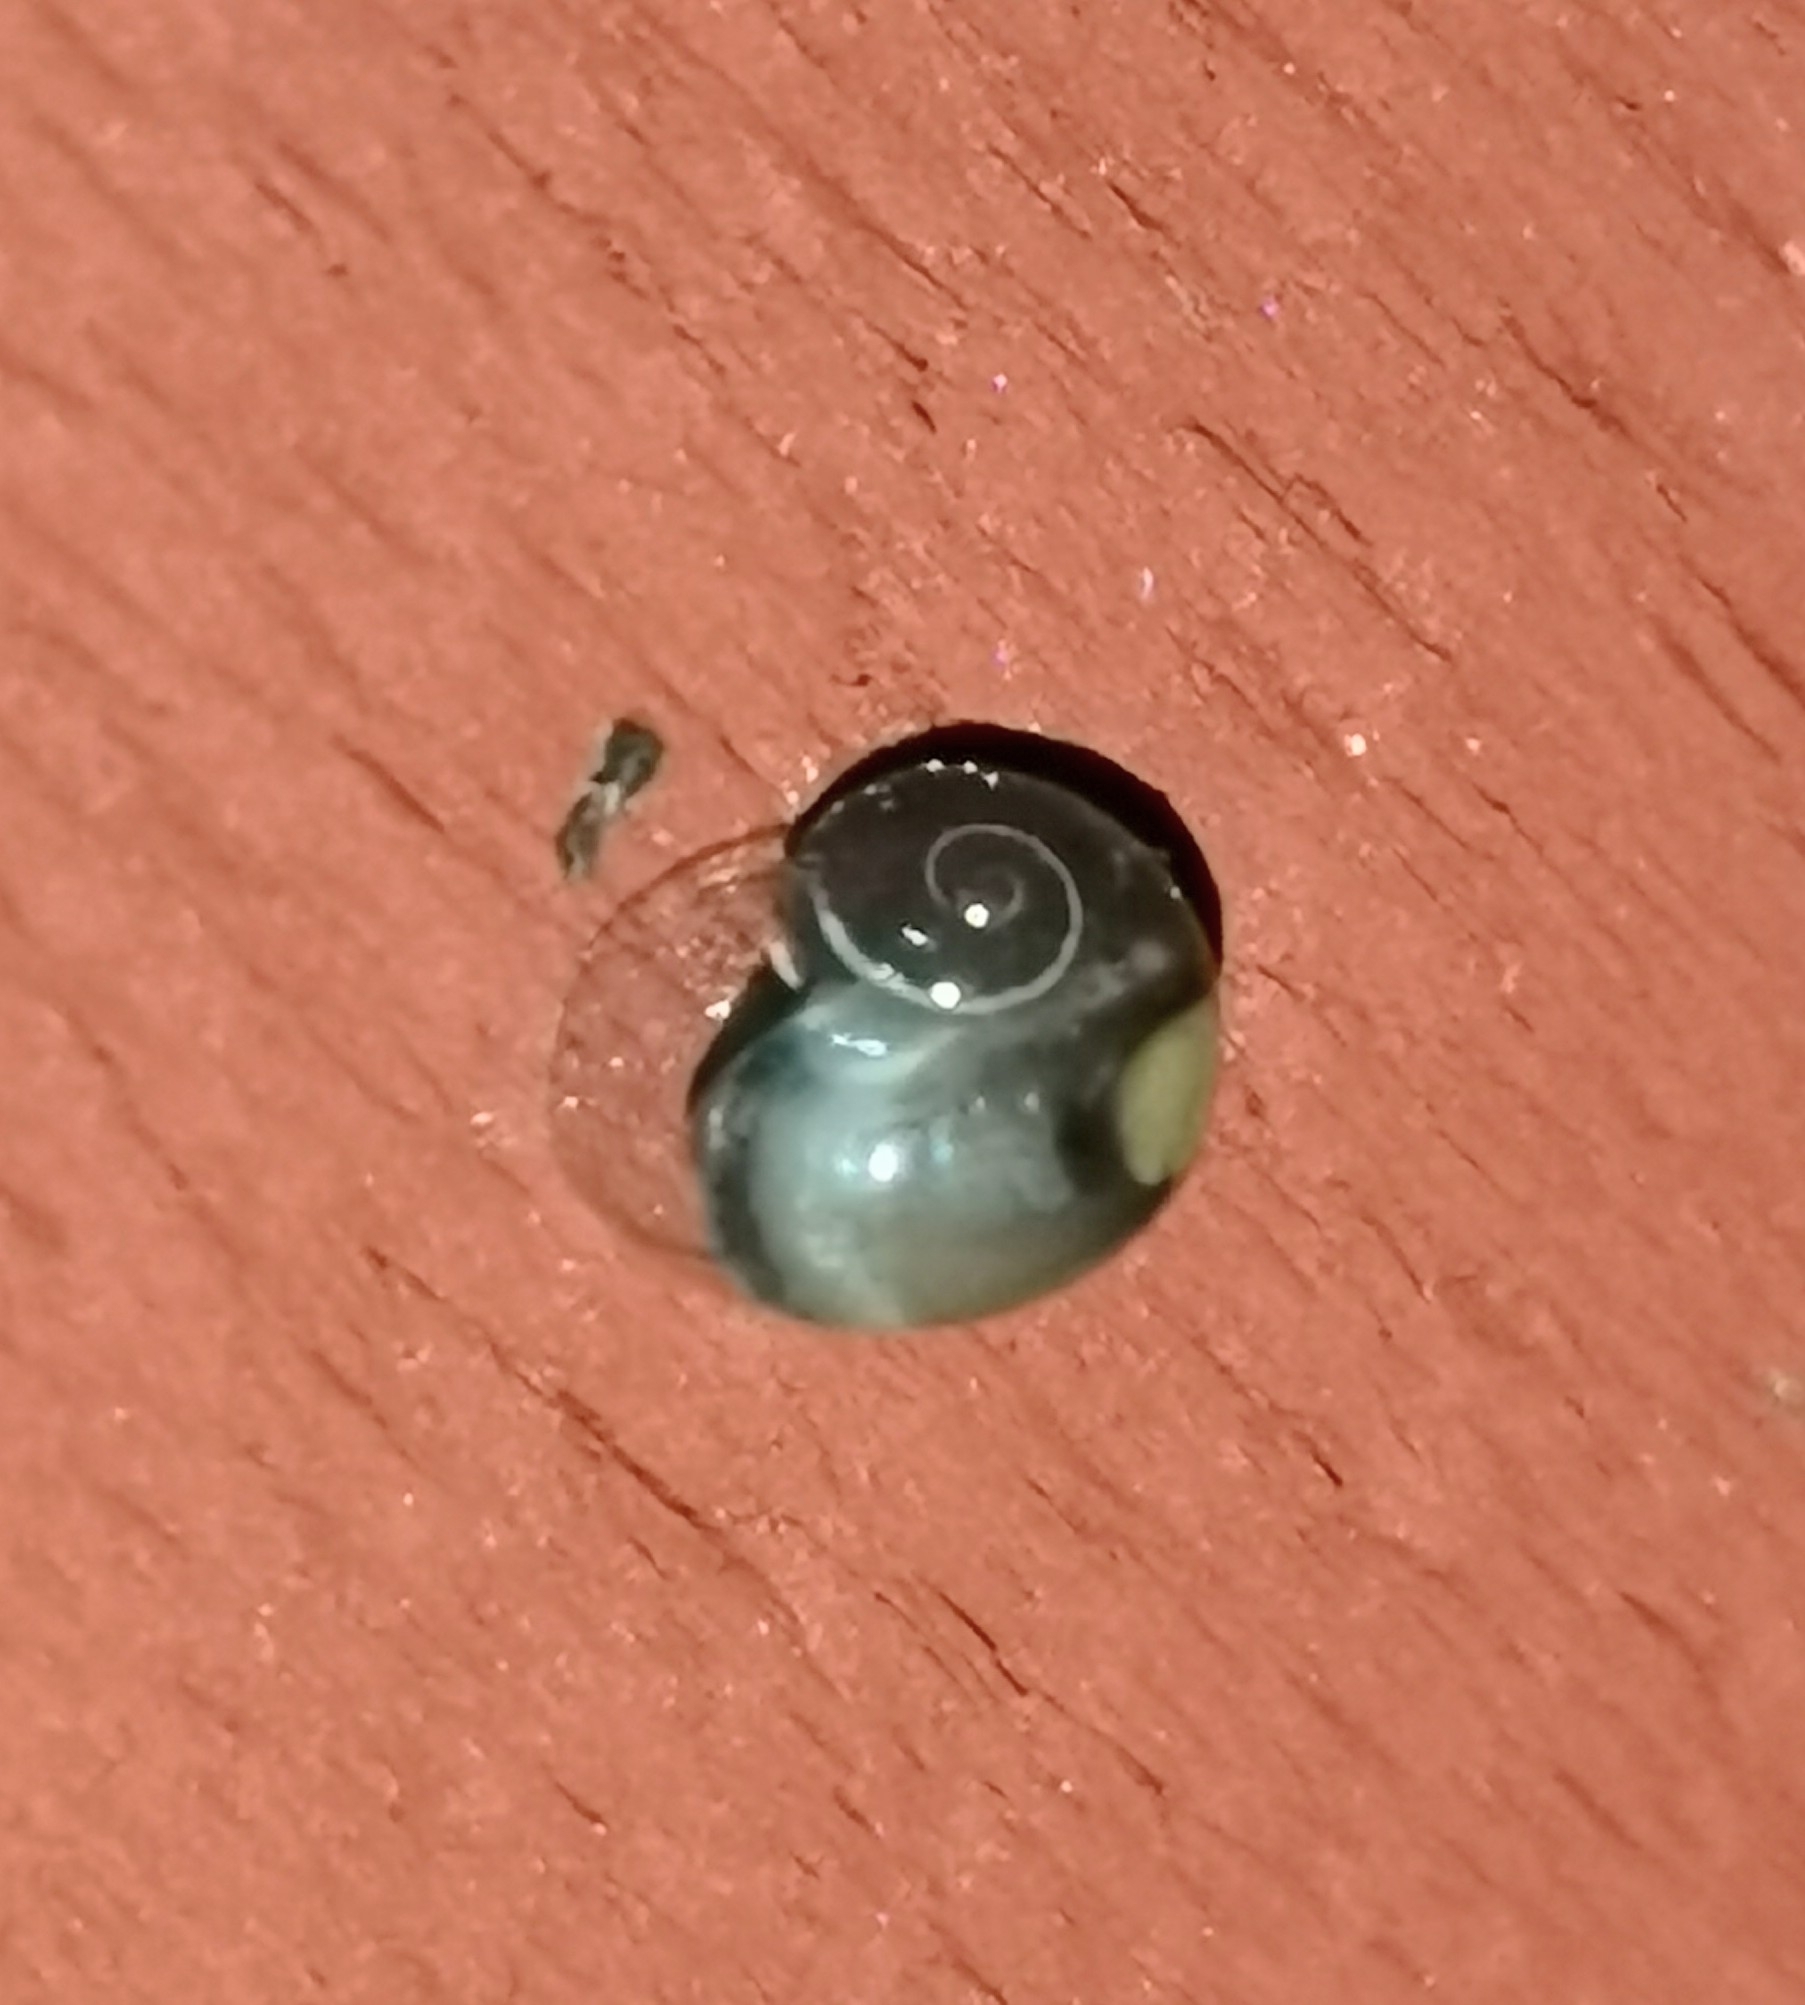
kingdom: Animalia
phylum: Mollusca
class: Gastropoda
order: Stylommatophora
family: Vitrinidae
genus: Vitrina
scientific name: Vitrina pellucida
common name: Pellucid glass snail
